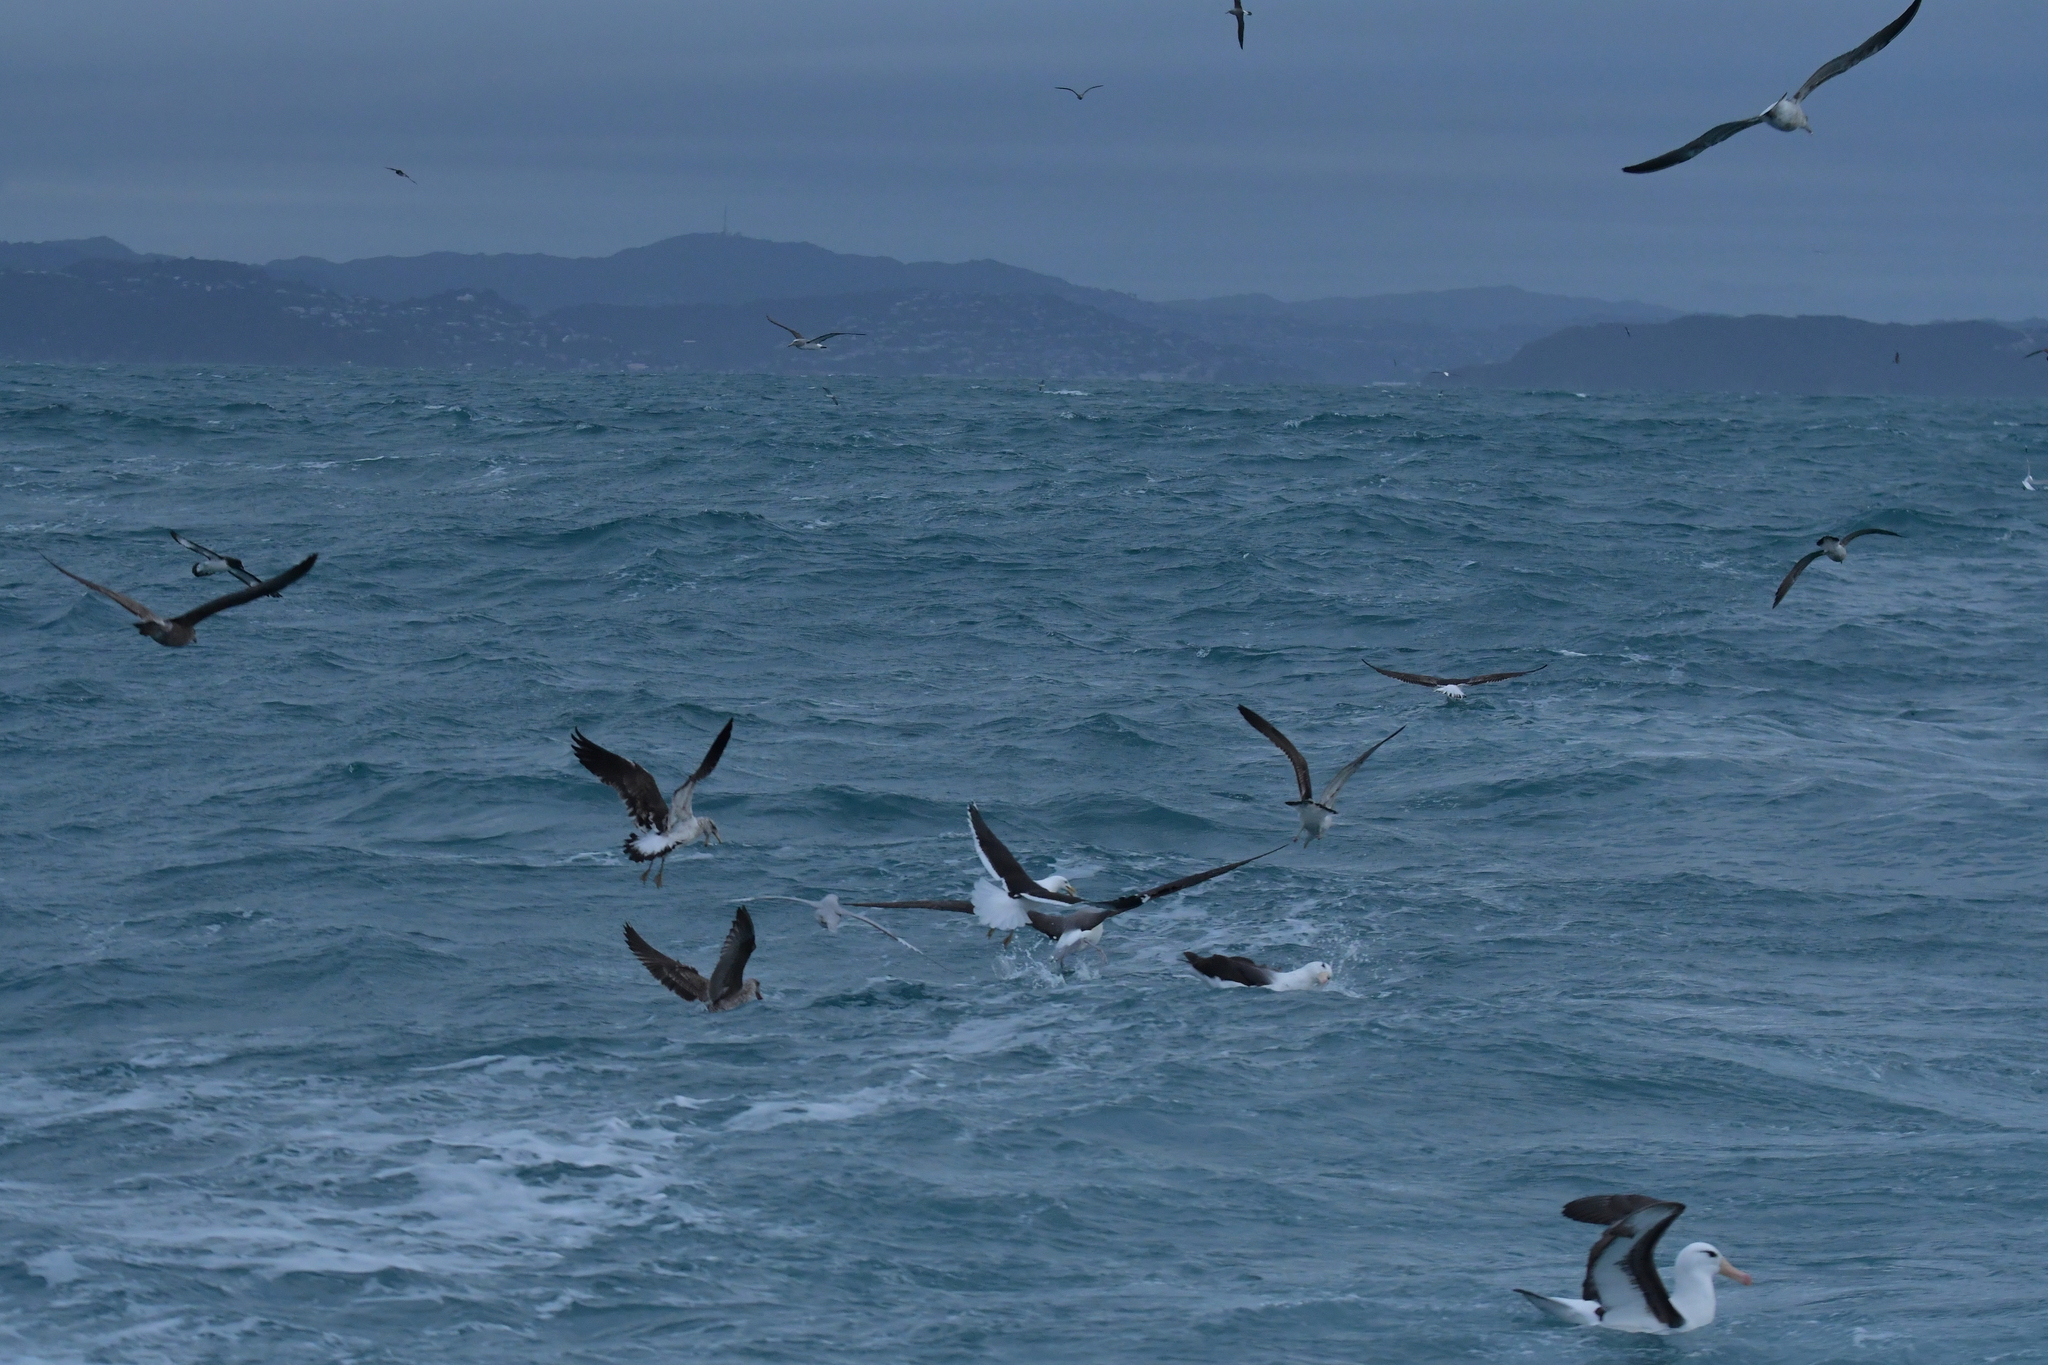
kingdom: Animalia
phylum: Chordata
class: Aves
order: Charadriiformes
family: Laridae
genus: Larus
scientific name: Larus dominicanus
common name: Kelp gull
